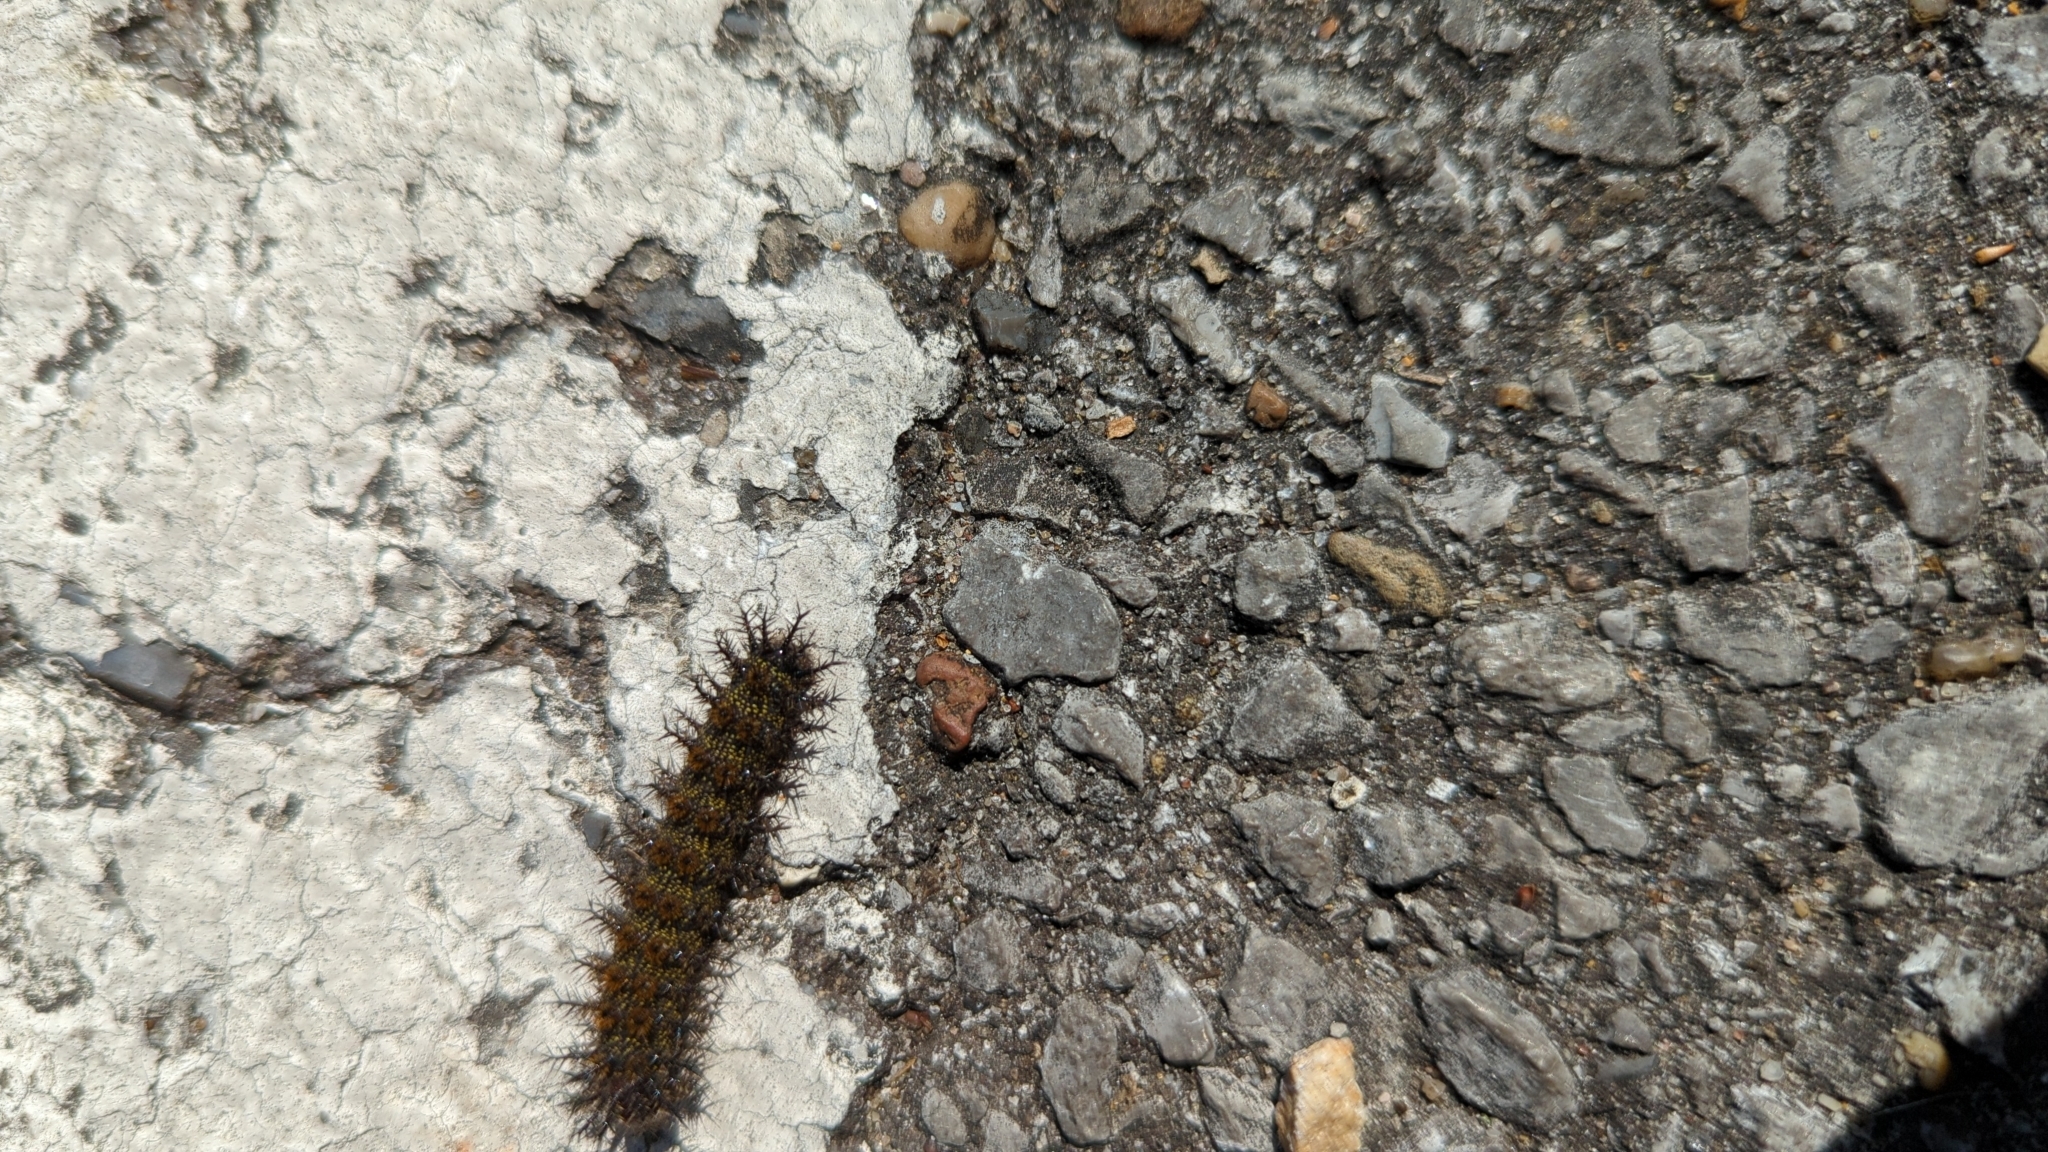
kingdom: Animalia
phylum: Arthropoda
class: Insecta
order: Lepidoptera
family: Saturniidae
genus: Hemileuca
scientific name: Hemileuca maia
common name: Eastern buckmoth
